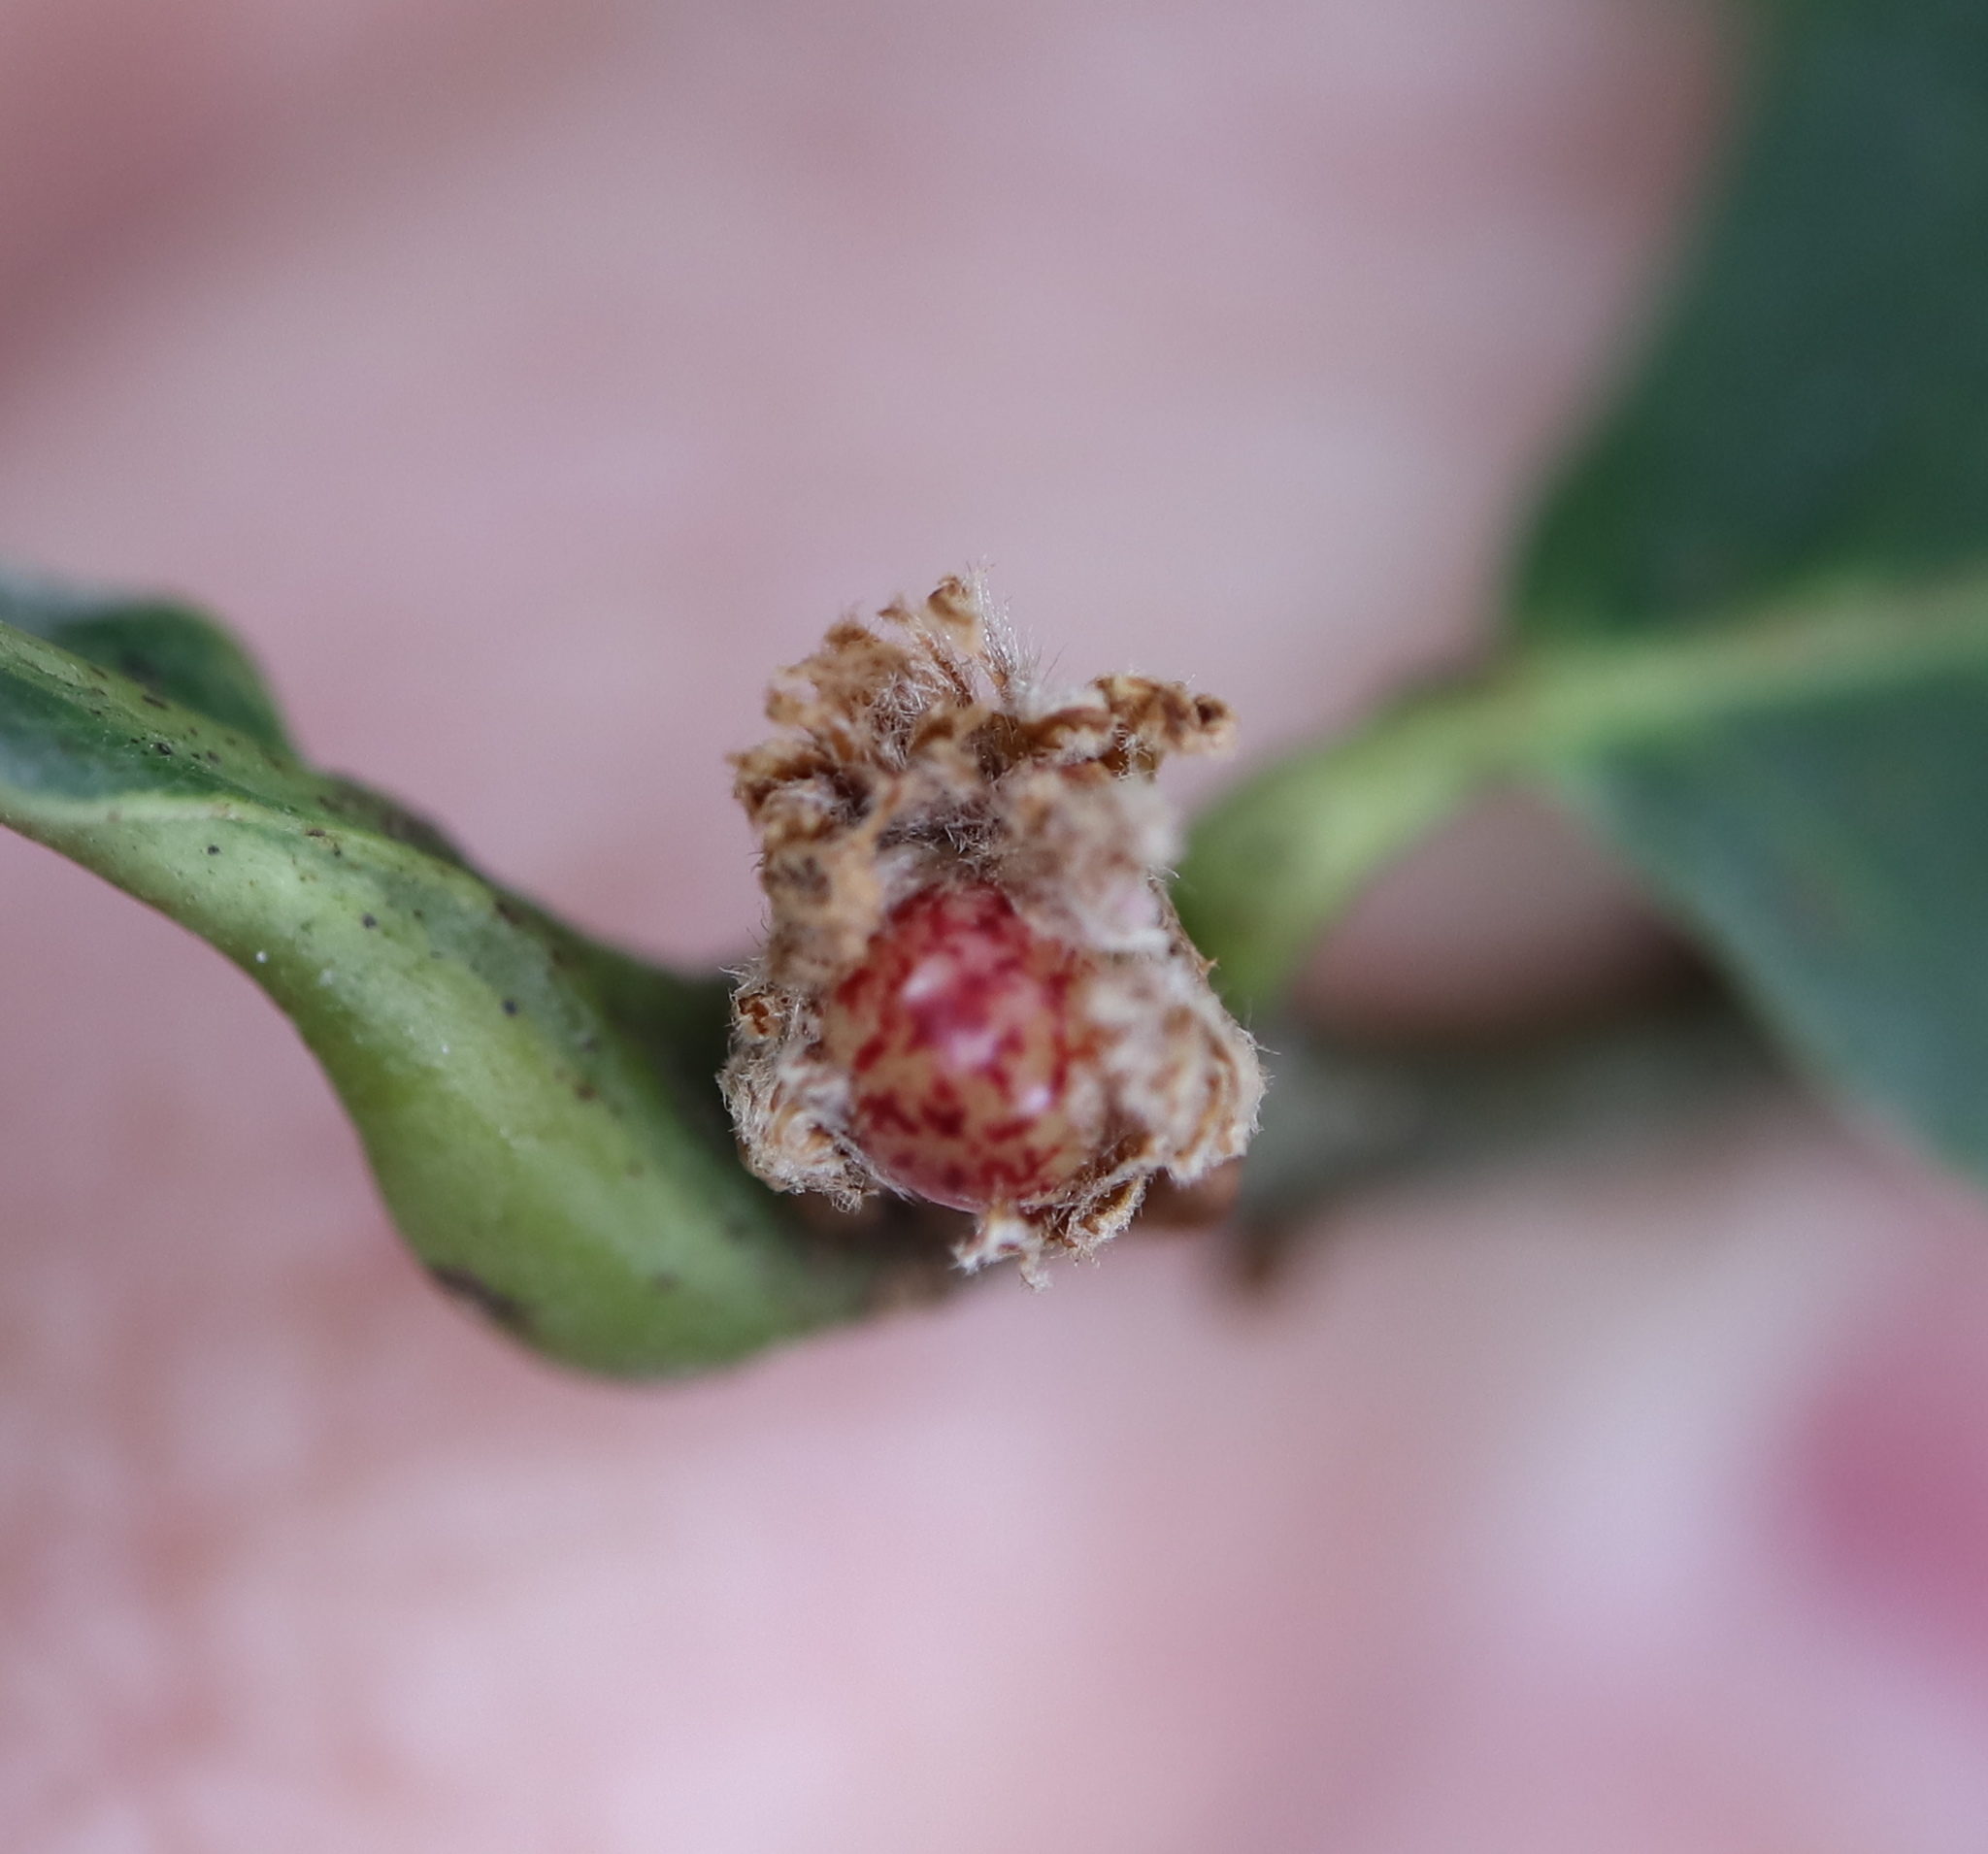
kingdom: Animalia
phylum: Arthropoda
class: Insecta
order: Hymenoptera
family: Cynipidae
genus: Andricus
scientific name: Andricus
